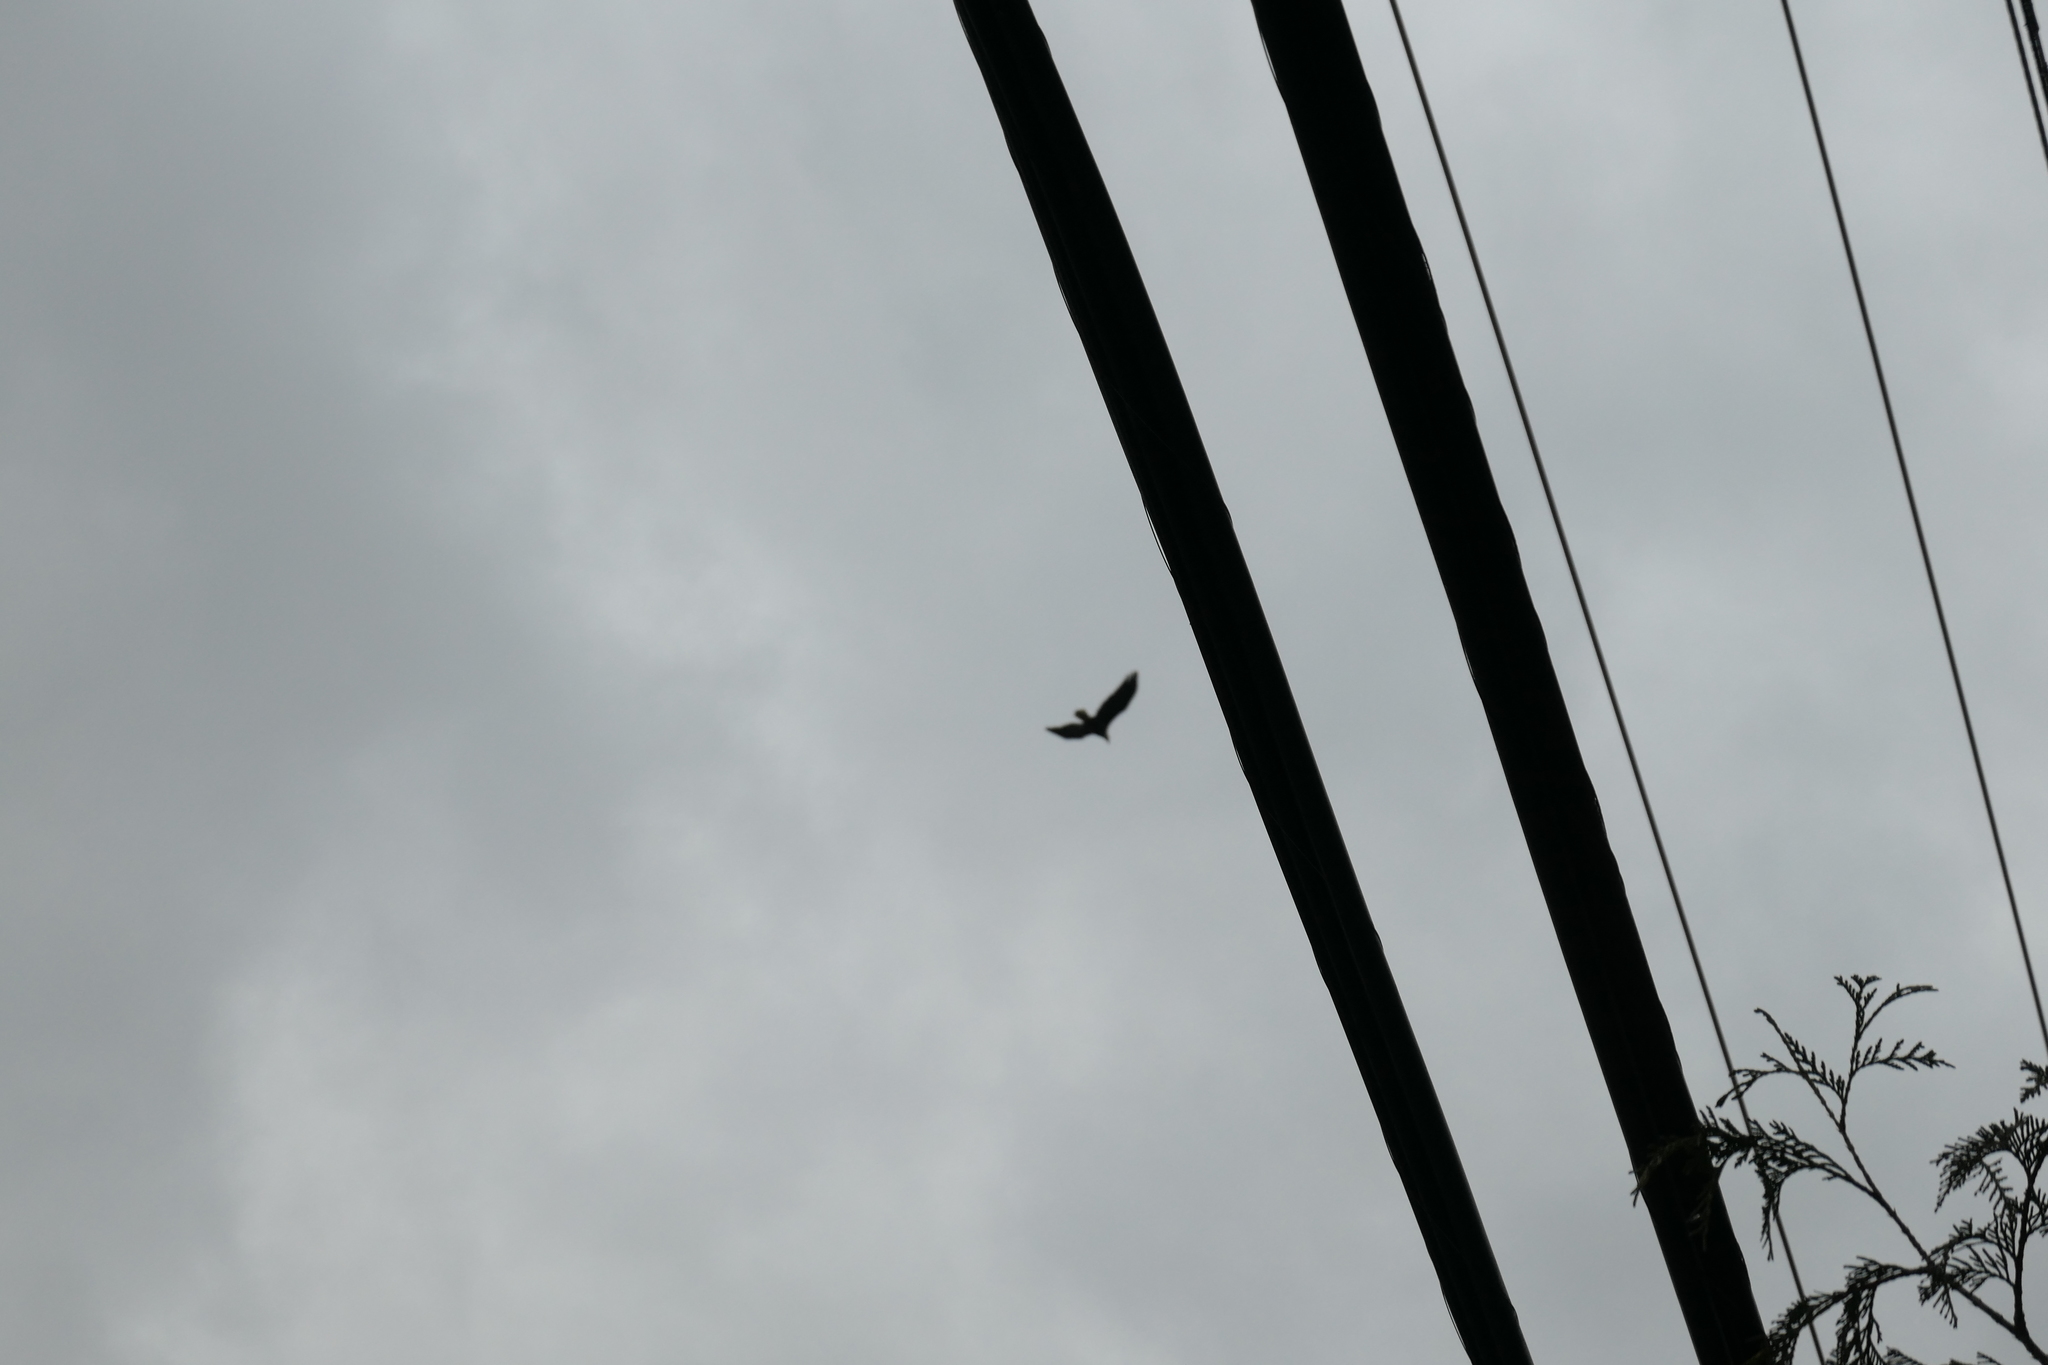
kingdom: Animalia
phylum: Chordata
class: Aves
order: Accipitriformes
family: Accipitridae
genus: Haliaeetus
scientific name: Haliaeetus leucocephalus
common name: Bald eagle
